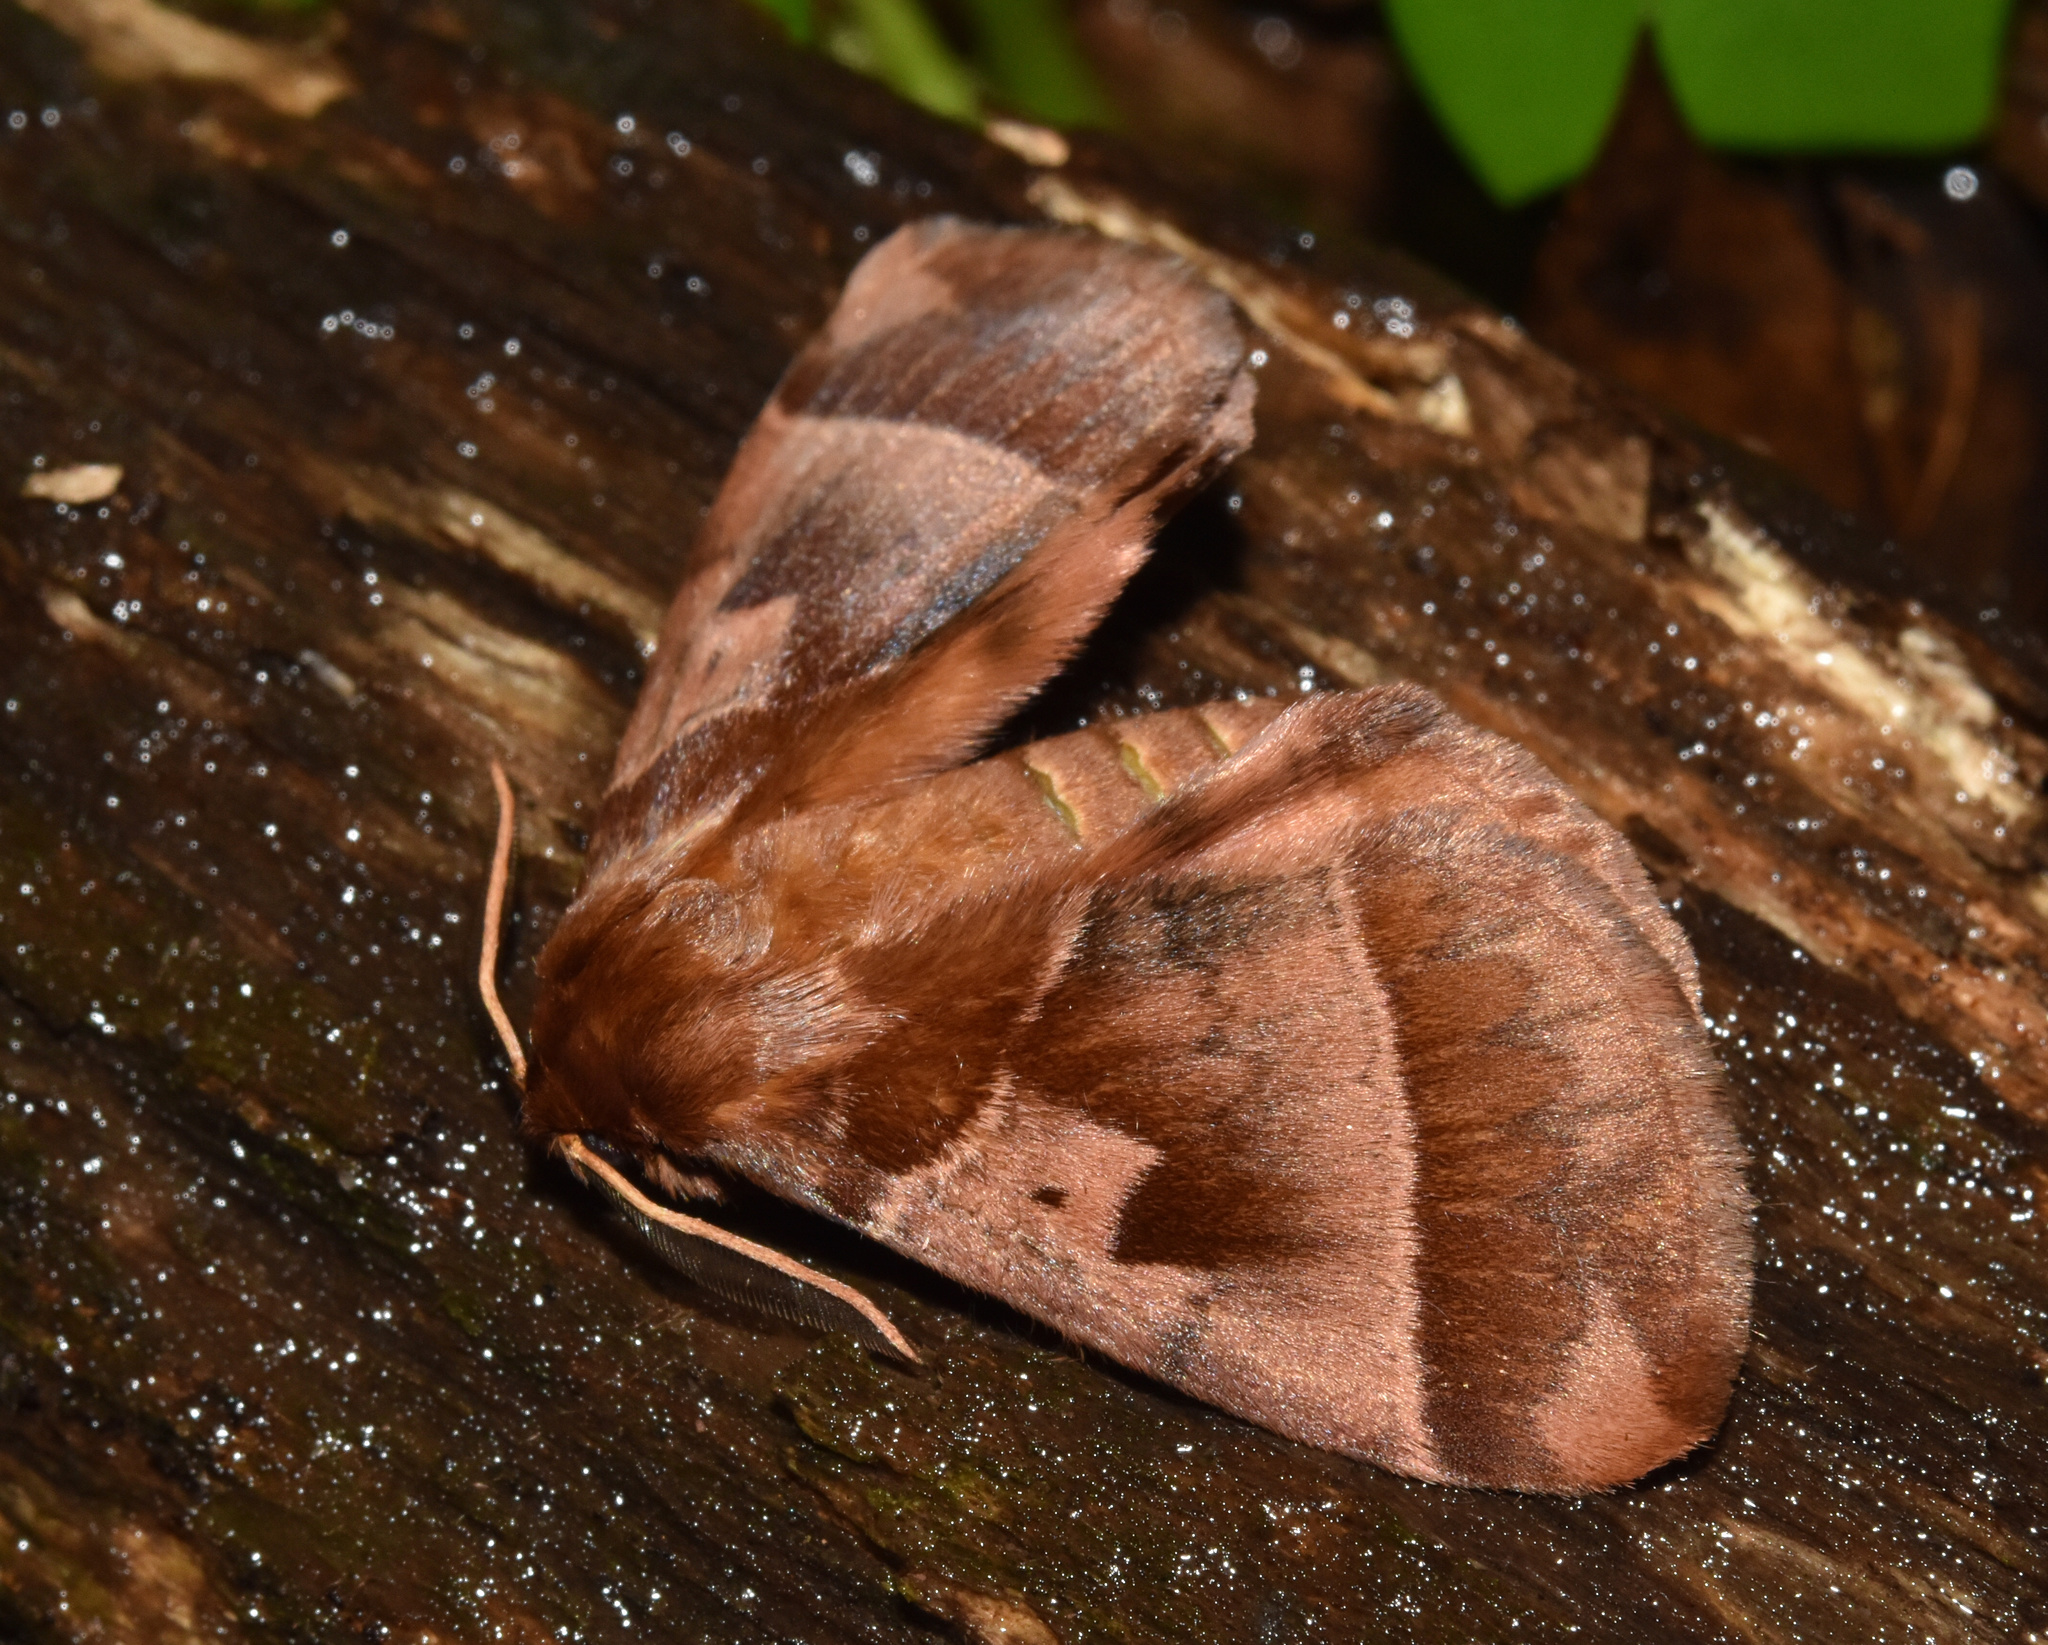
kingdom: Animalia
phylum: Arthropoda
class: Insecta
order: Lepidoptera
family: Eupterotidae
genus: Poloma
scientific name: Poloma angulata
